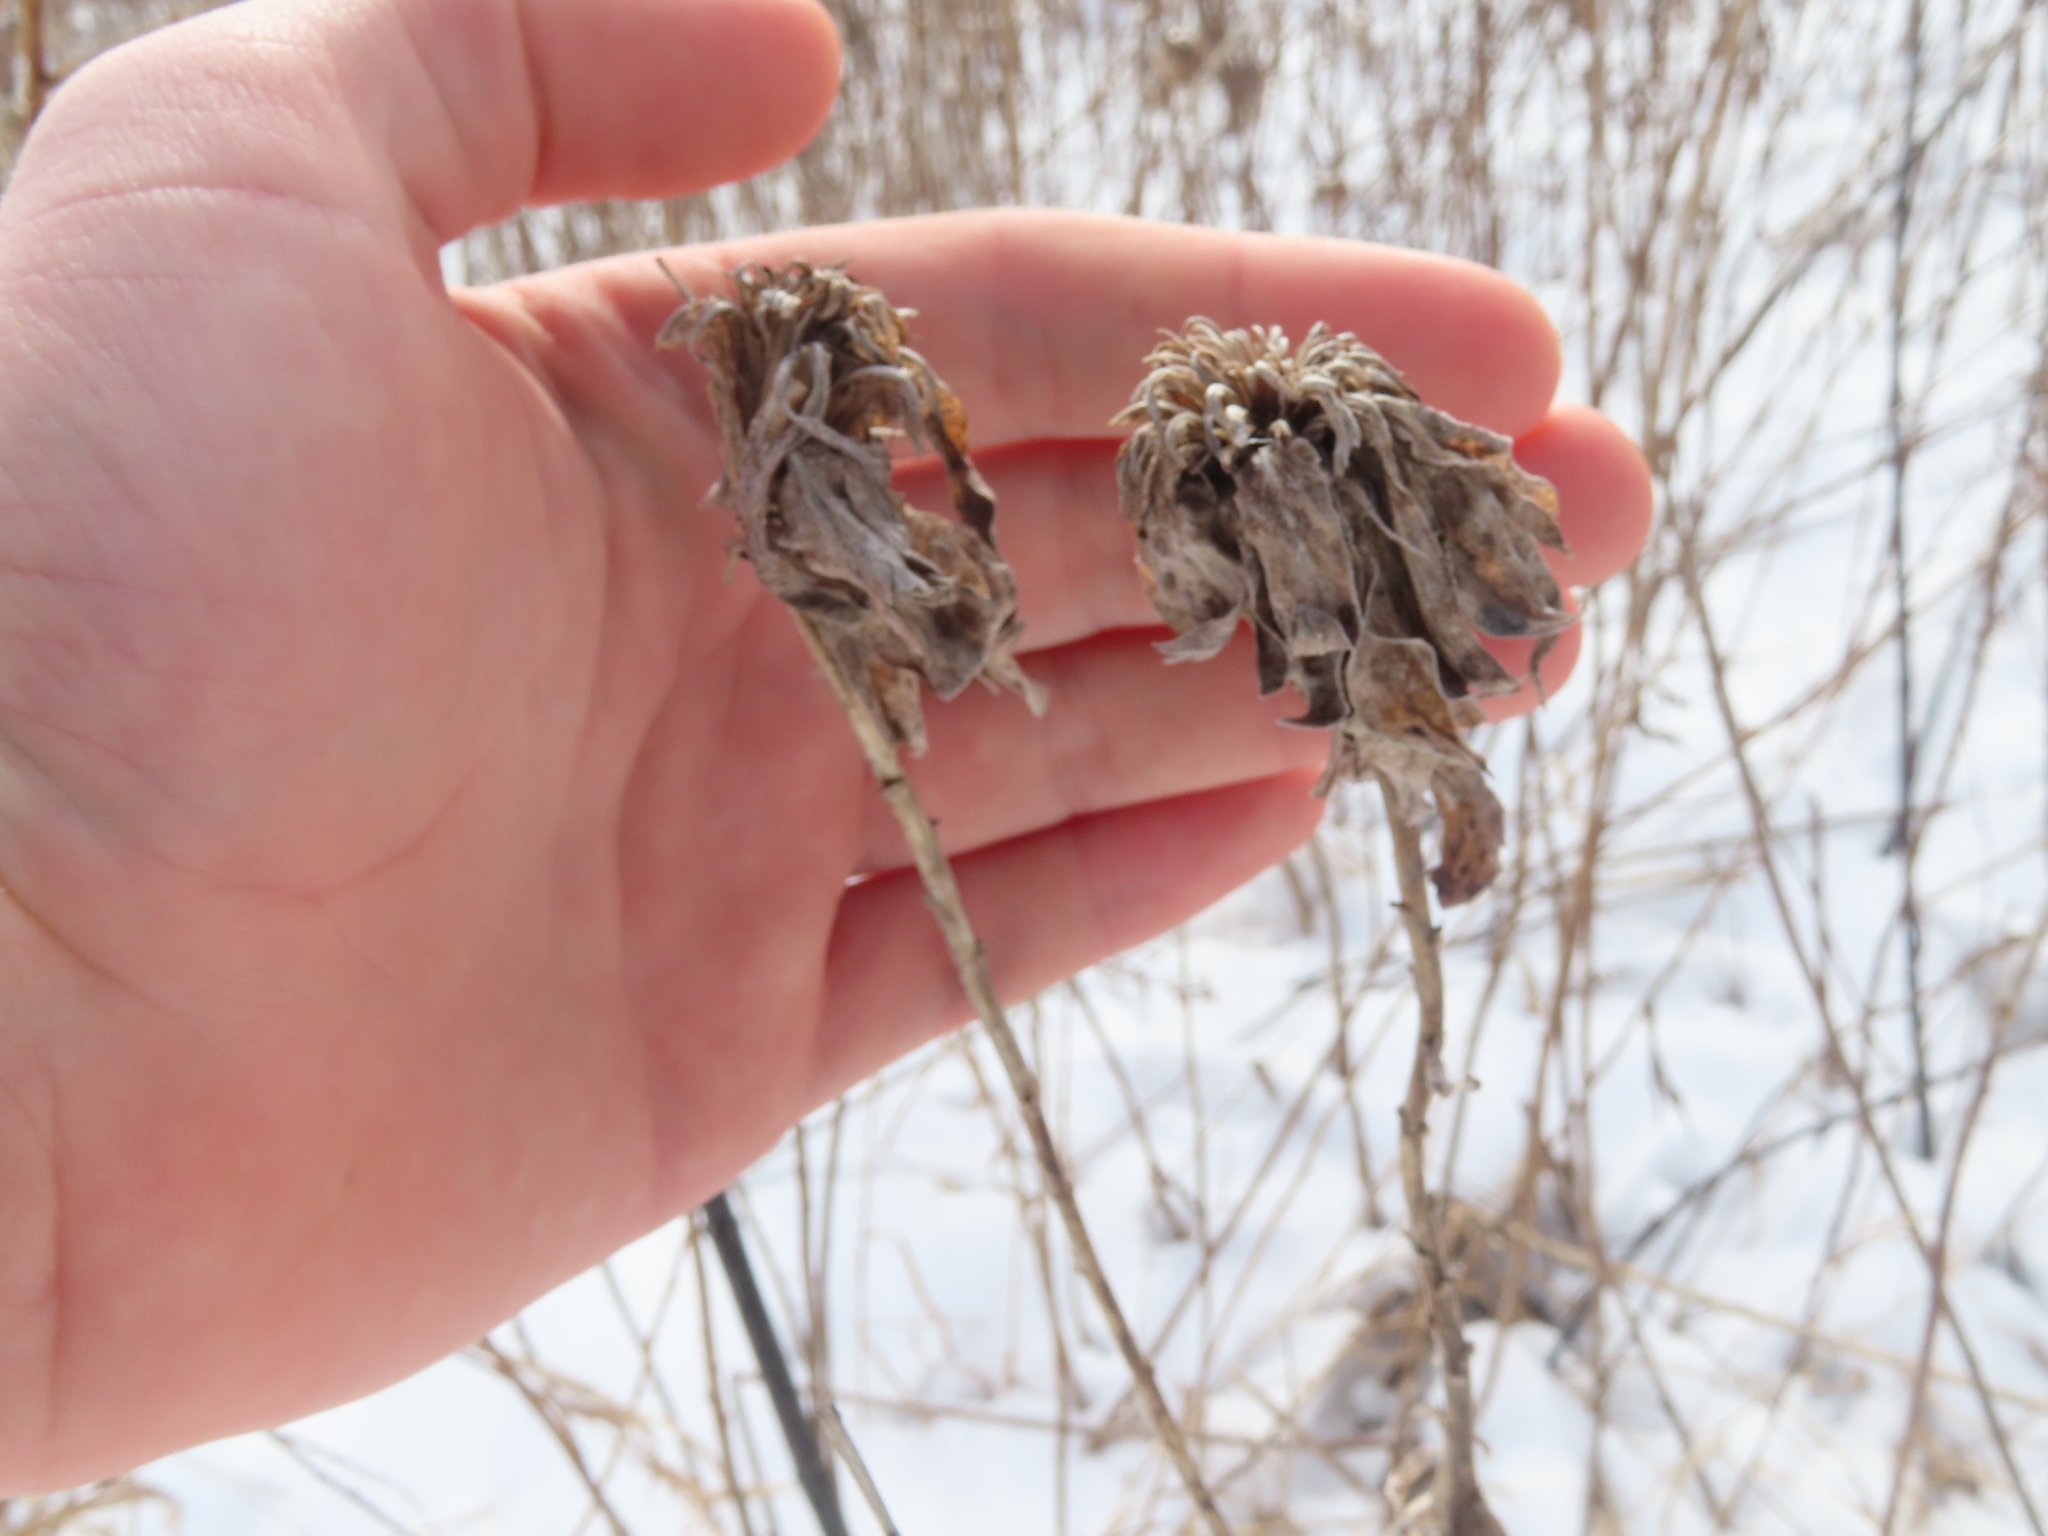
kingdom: Animalia
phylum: Arthropoda
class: Insecta
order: Diptera
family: Cecidomyiidae
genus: Rhopalomyia
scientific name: Rhopalomyia solidaginis
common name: Goldenrod bunch gall midge
